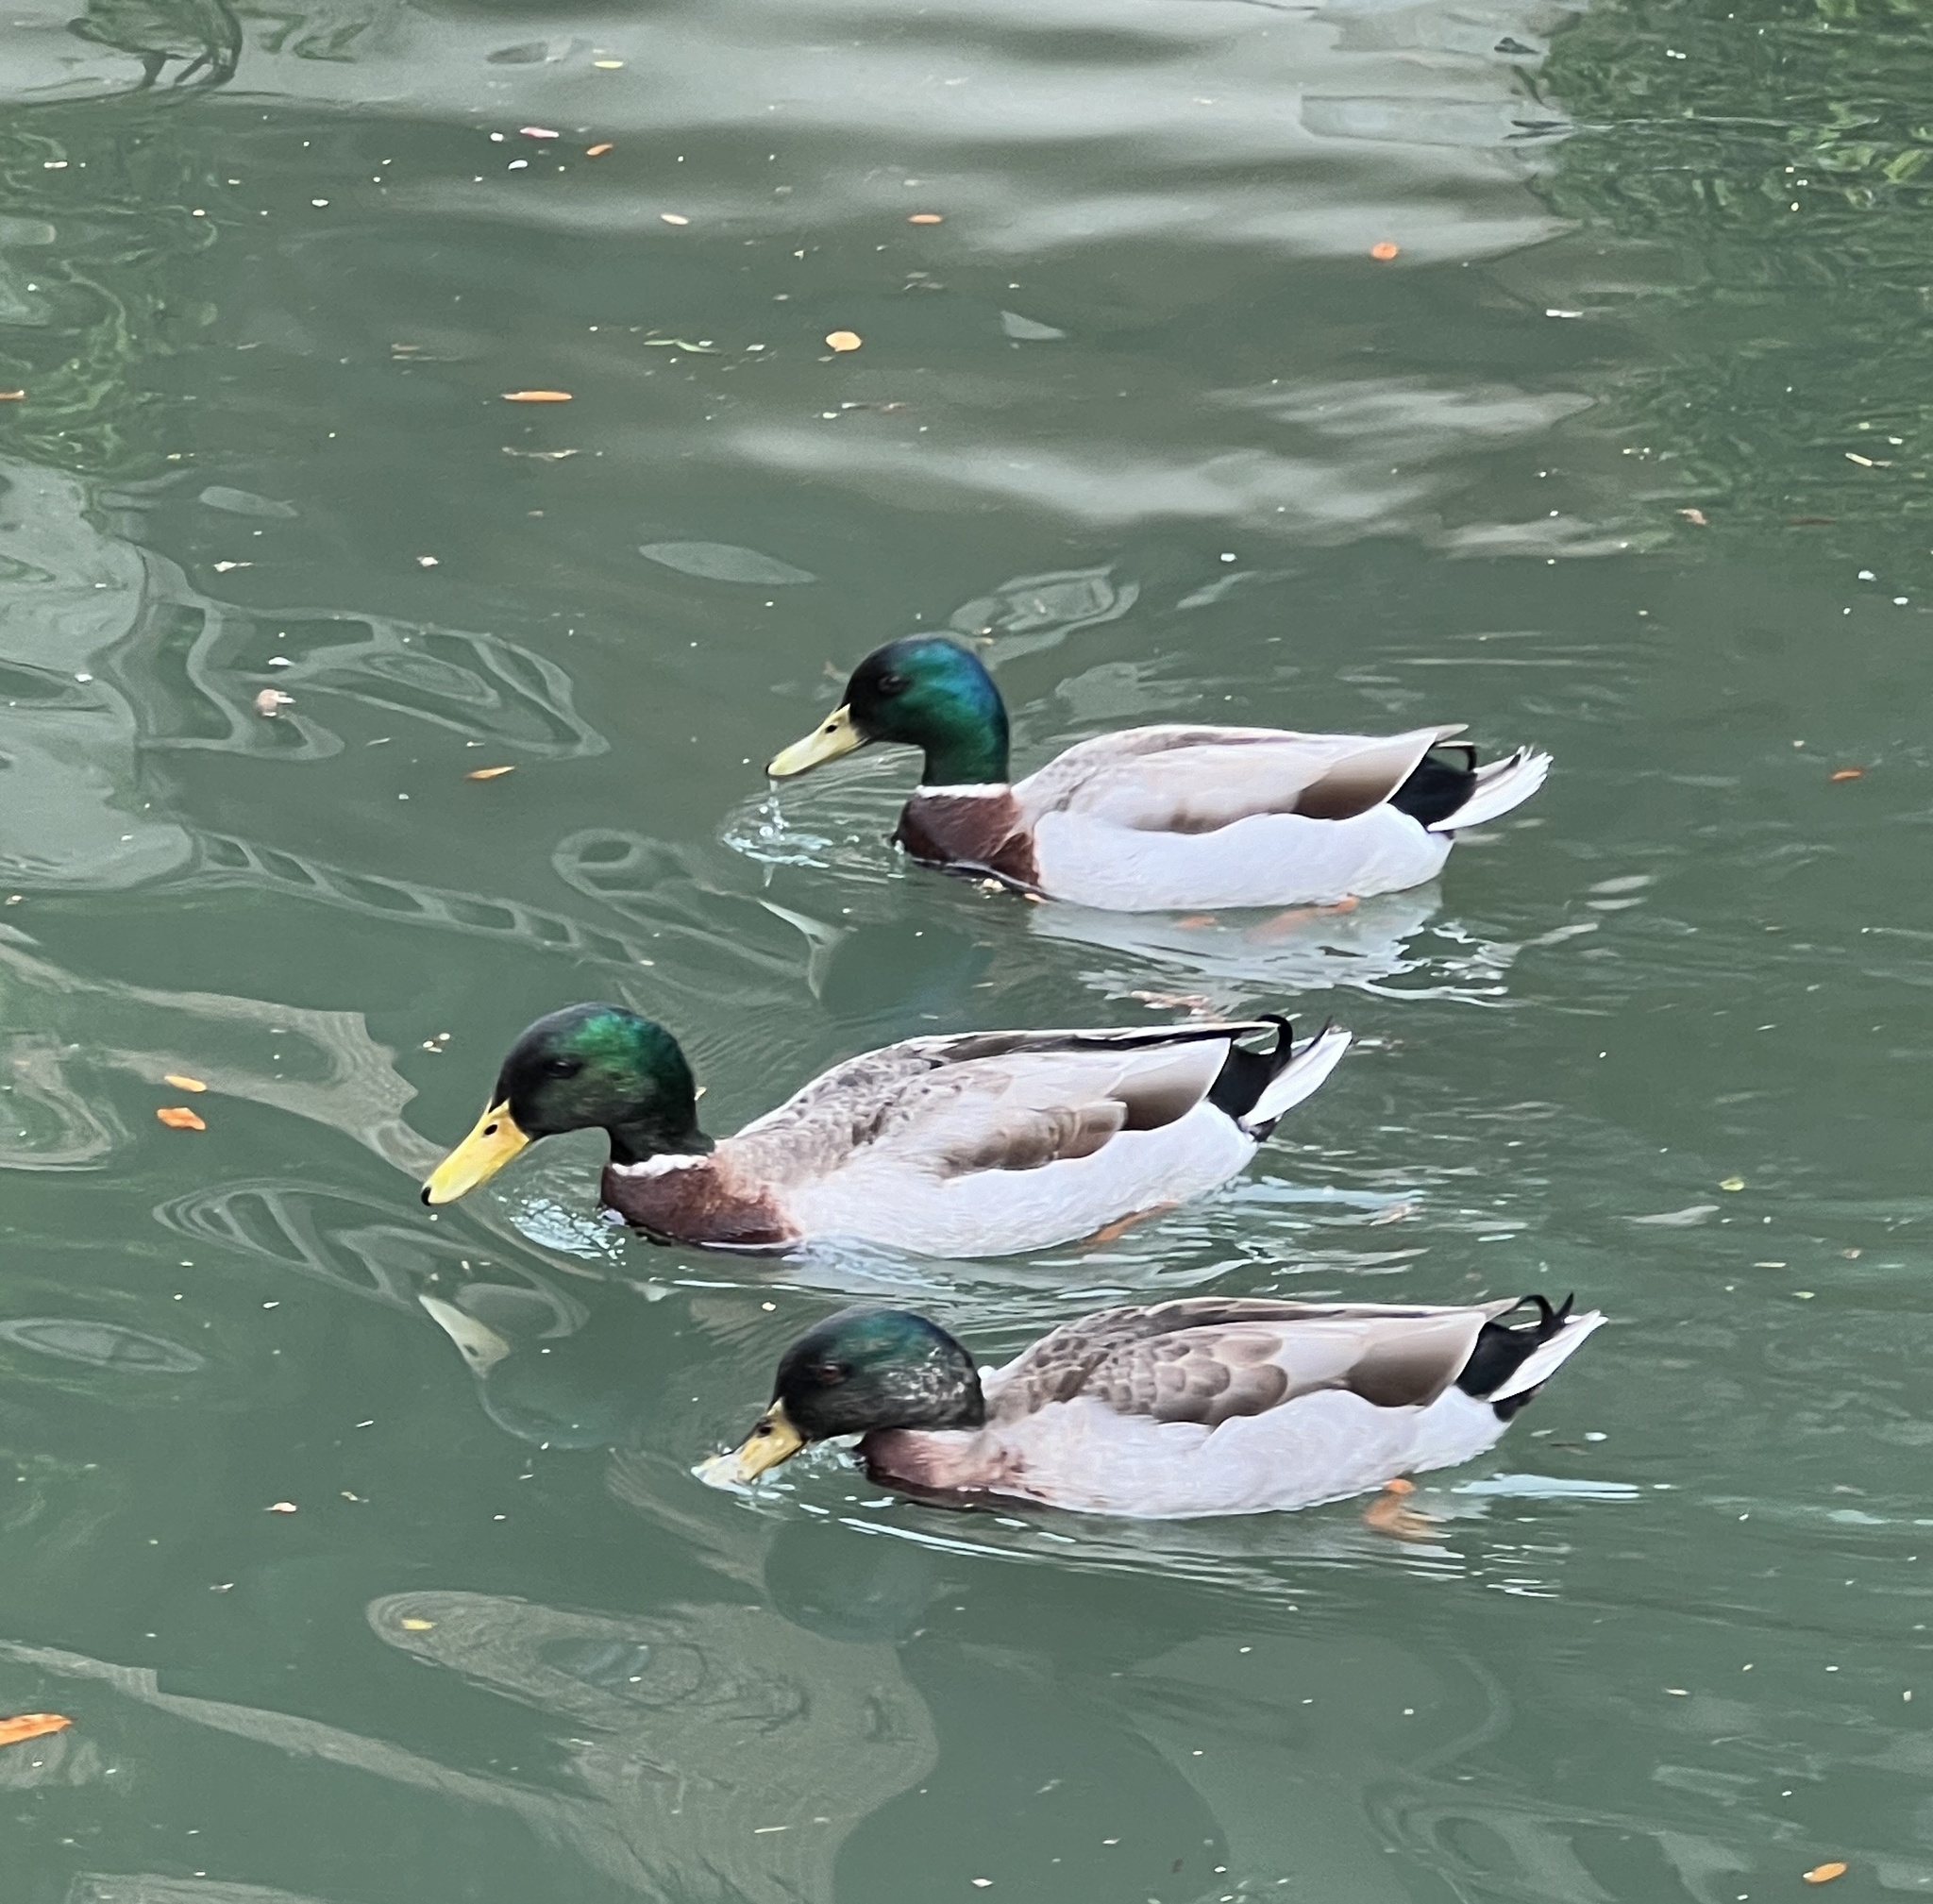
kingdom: Animalia
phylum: Chordata
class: Aves
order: Anseriformes
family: Anatidae
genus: Anas
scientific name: Anas platyrhynchos
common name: Mallard
